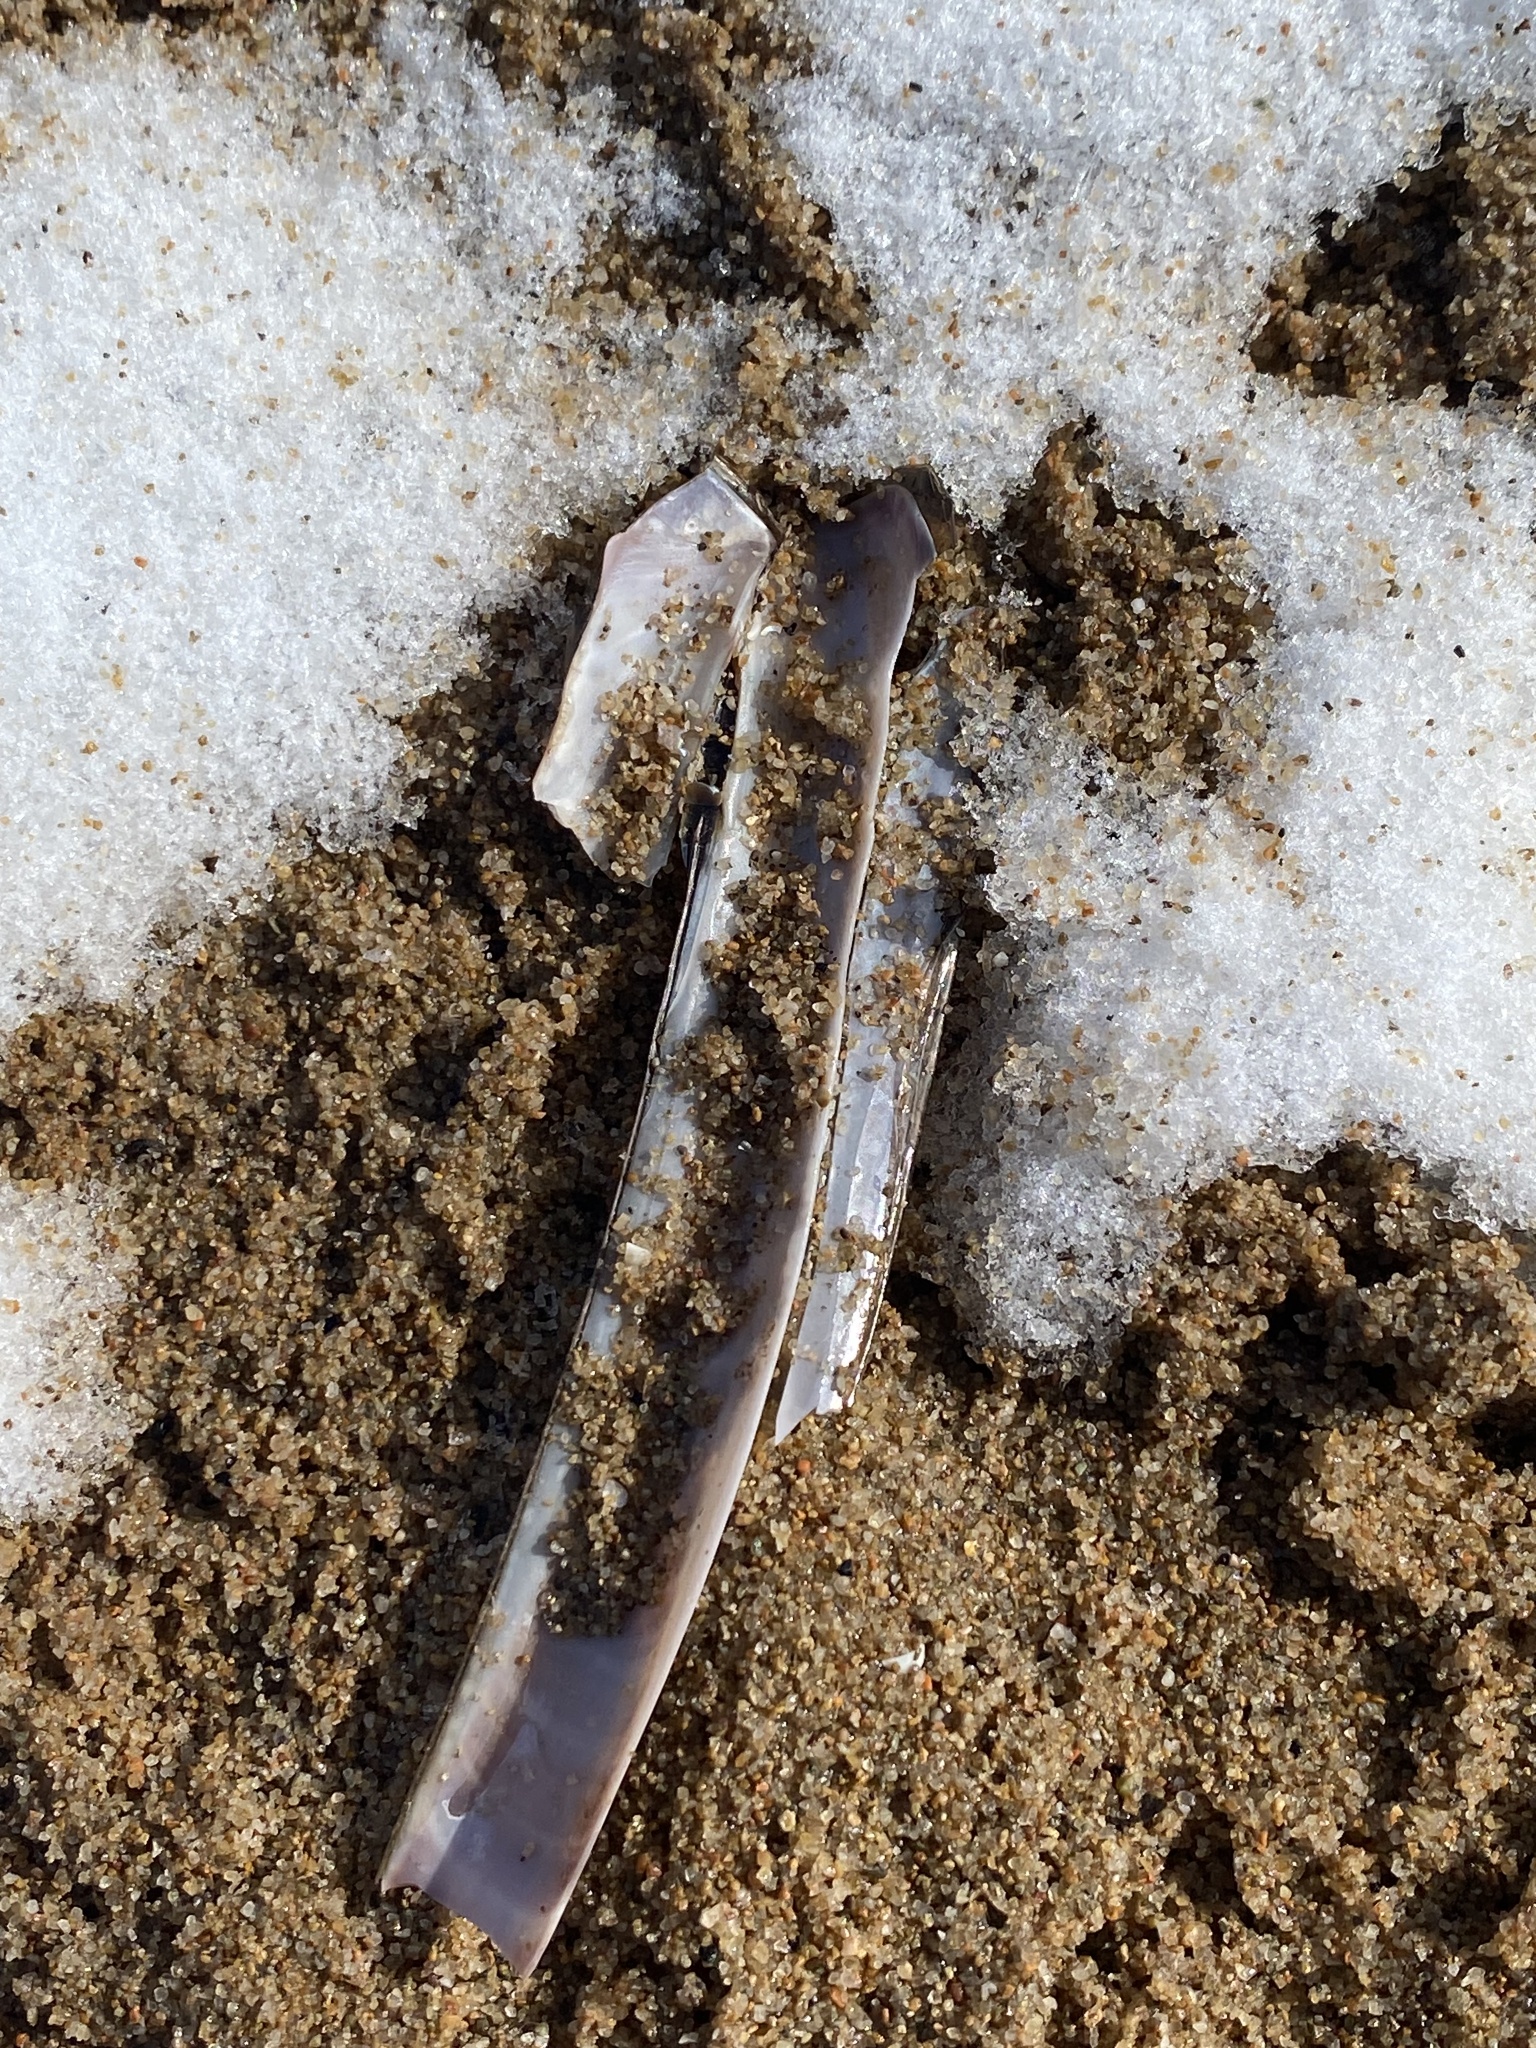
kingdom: Animalia
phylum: Mollusca
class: Bivalvia
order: Adapedonta
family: Pharidae
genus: Ensis
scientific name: Ensis leei
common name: American jack knife clam
